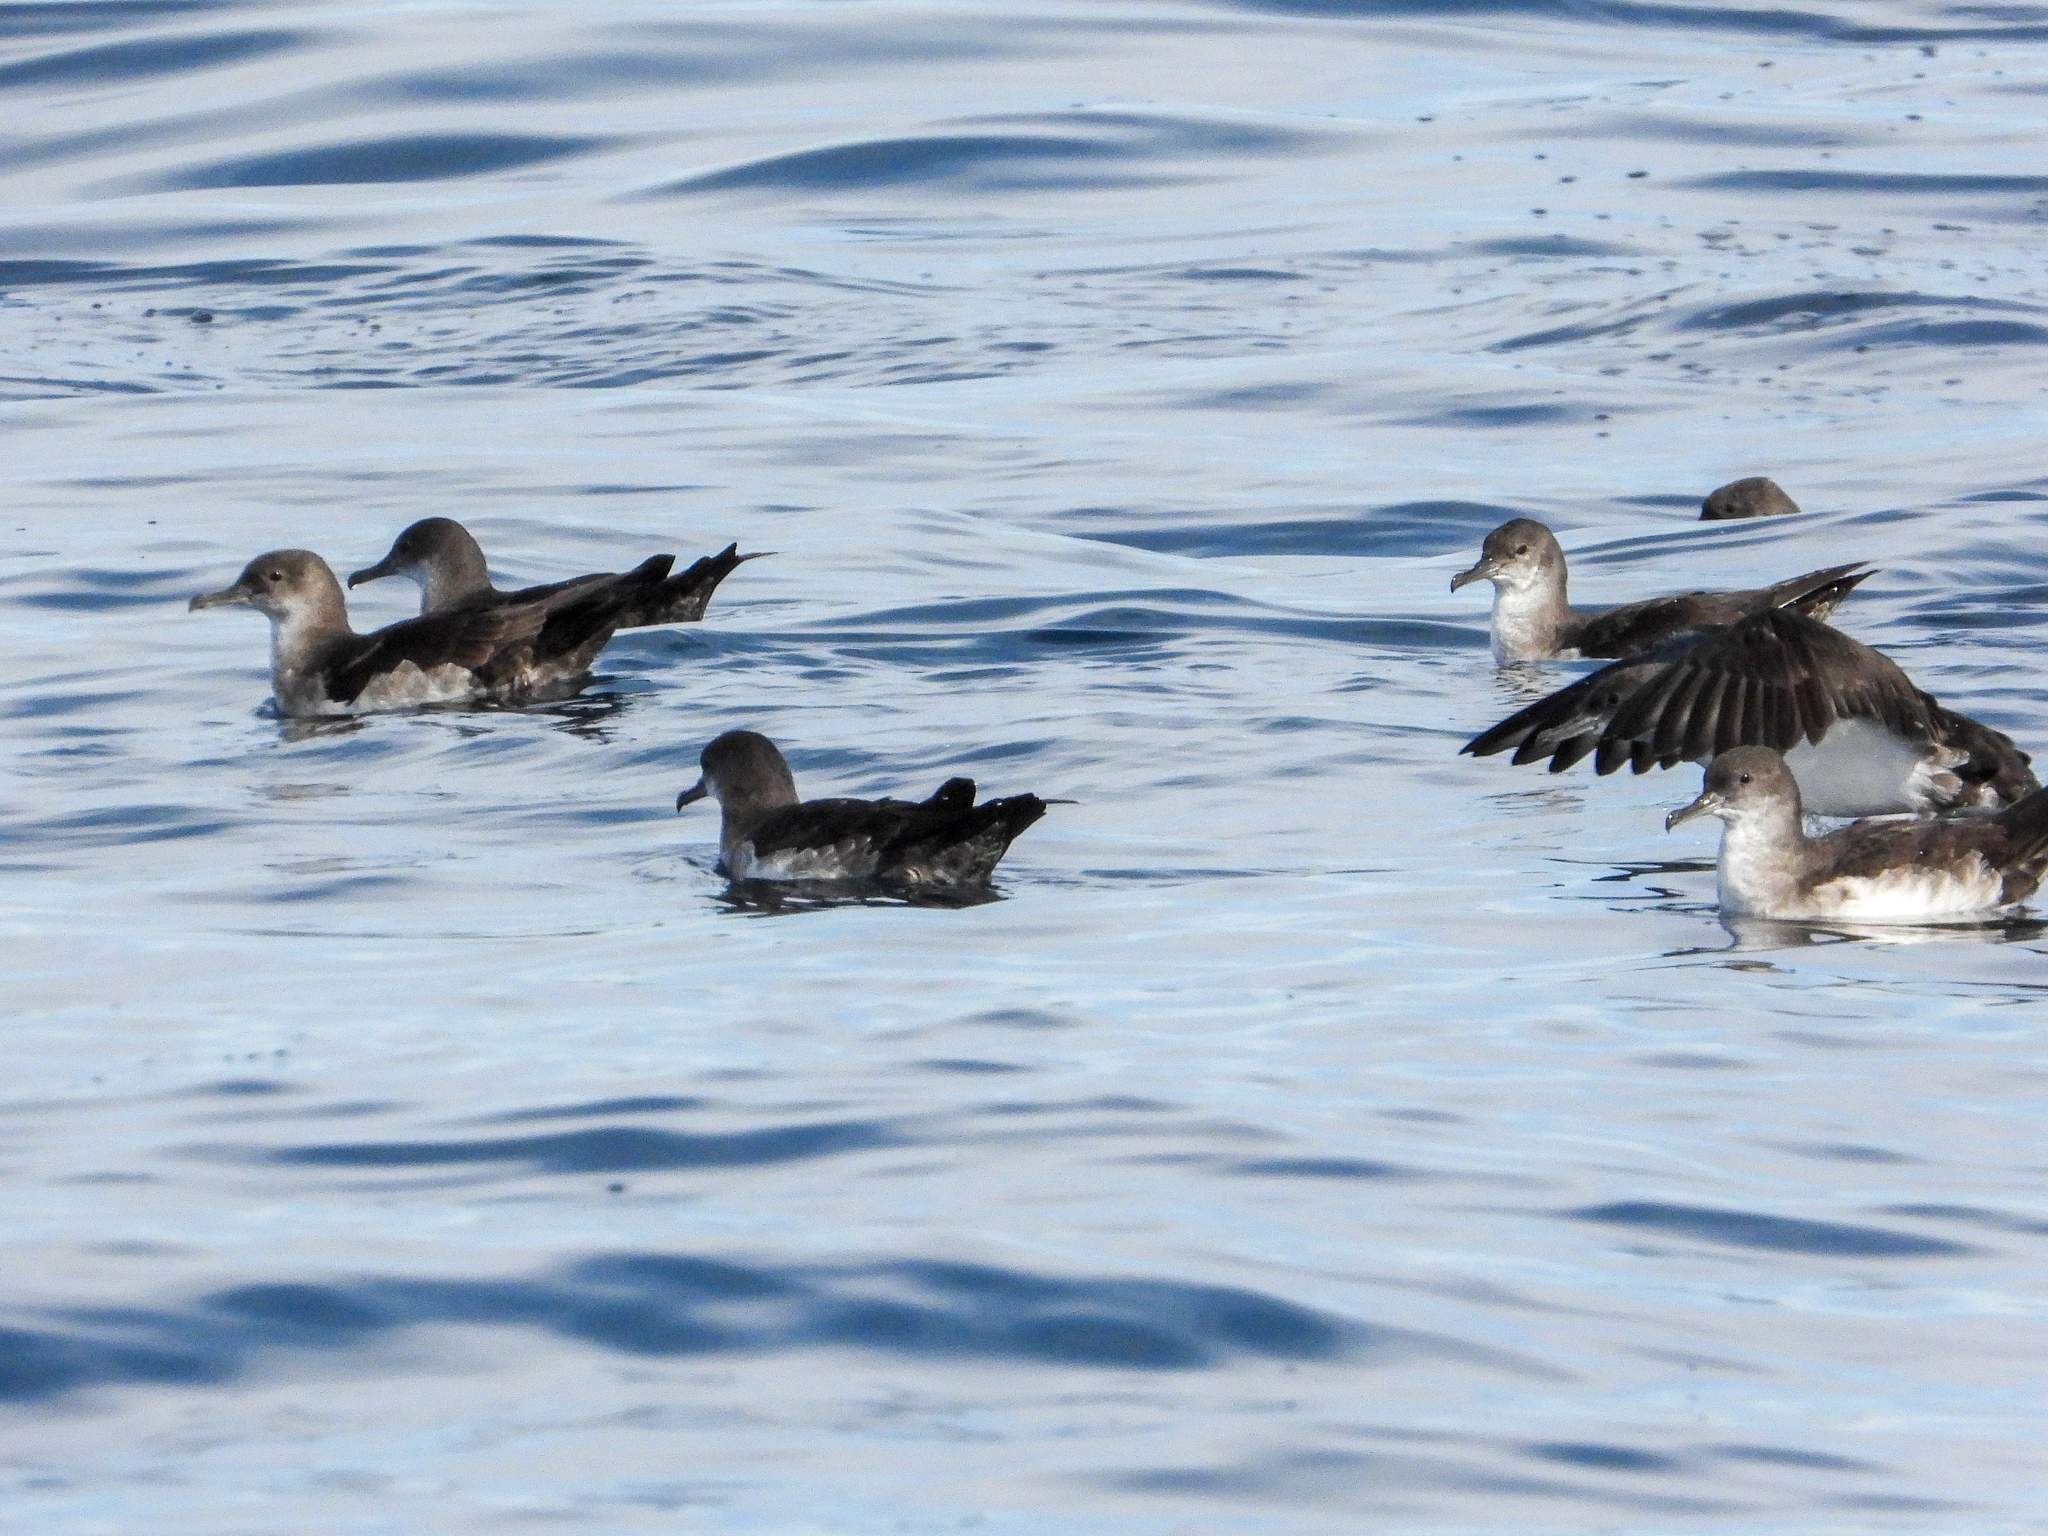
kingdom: Animalia
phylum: Chordata
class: Aves
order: Procellariiformes
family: Procellariidae
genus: Puffinus
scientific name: Puffinus opisthomelas
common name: Black-vented shearwater
